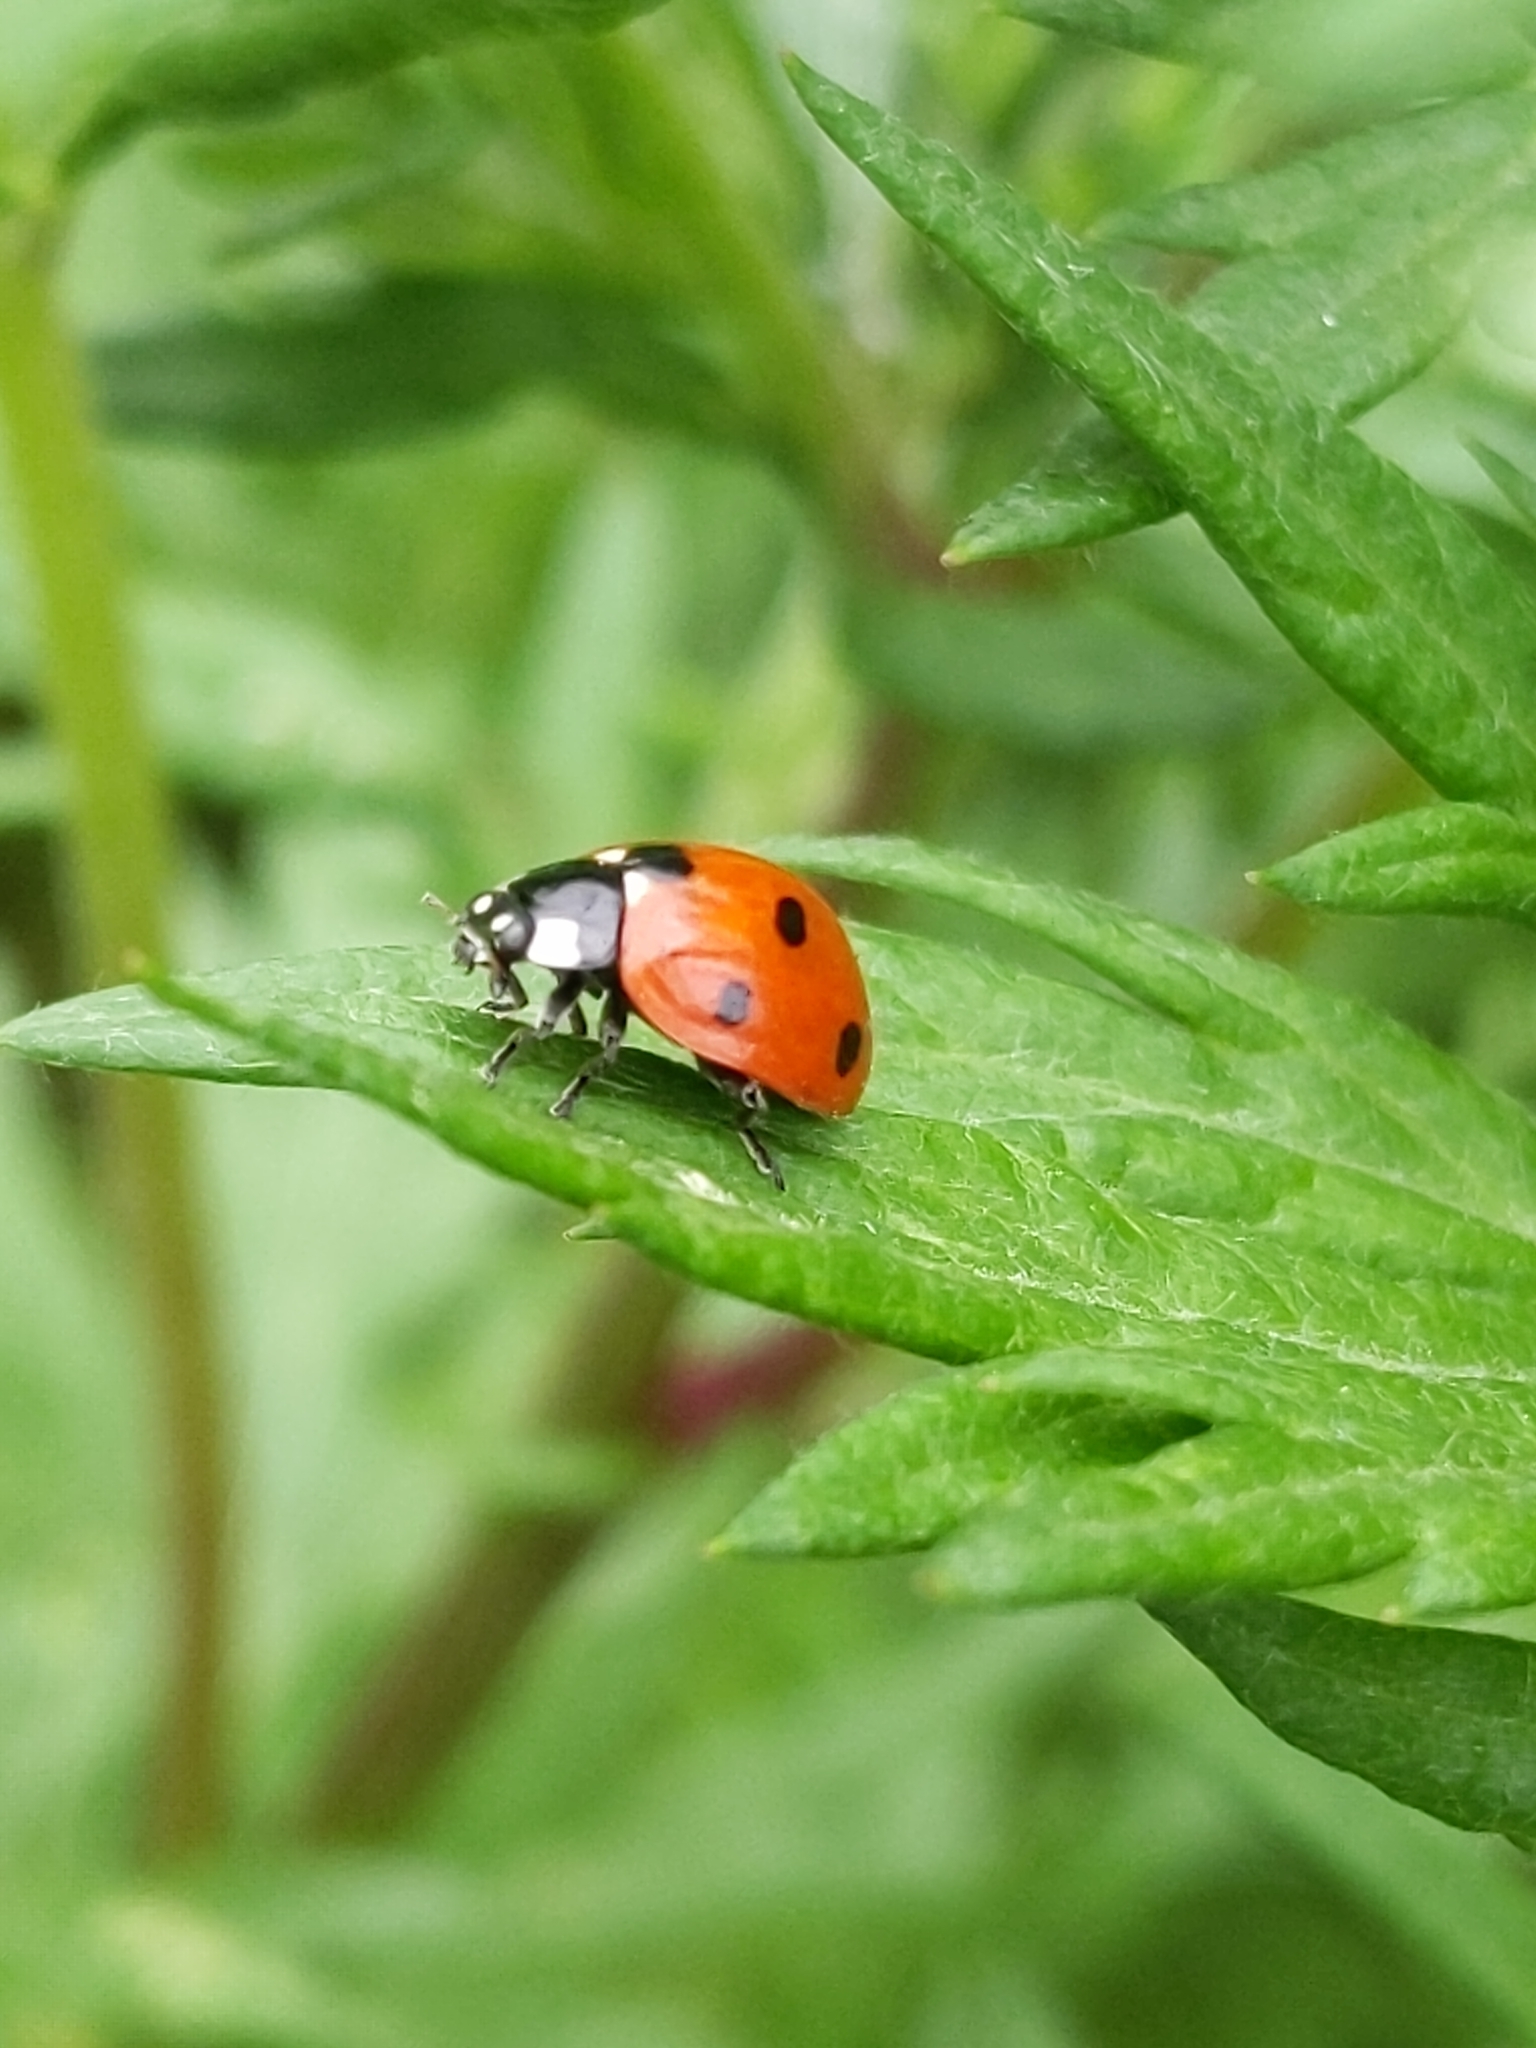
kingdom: Animalia
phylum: Arthropoda
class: Insecta
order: Coleoptera
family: Coccinellidae
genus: Coccinella
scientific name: Coccinella septempunctata
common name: Sevenspotted lady beetle
